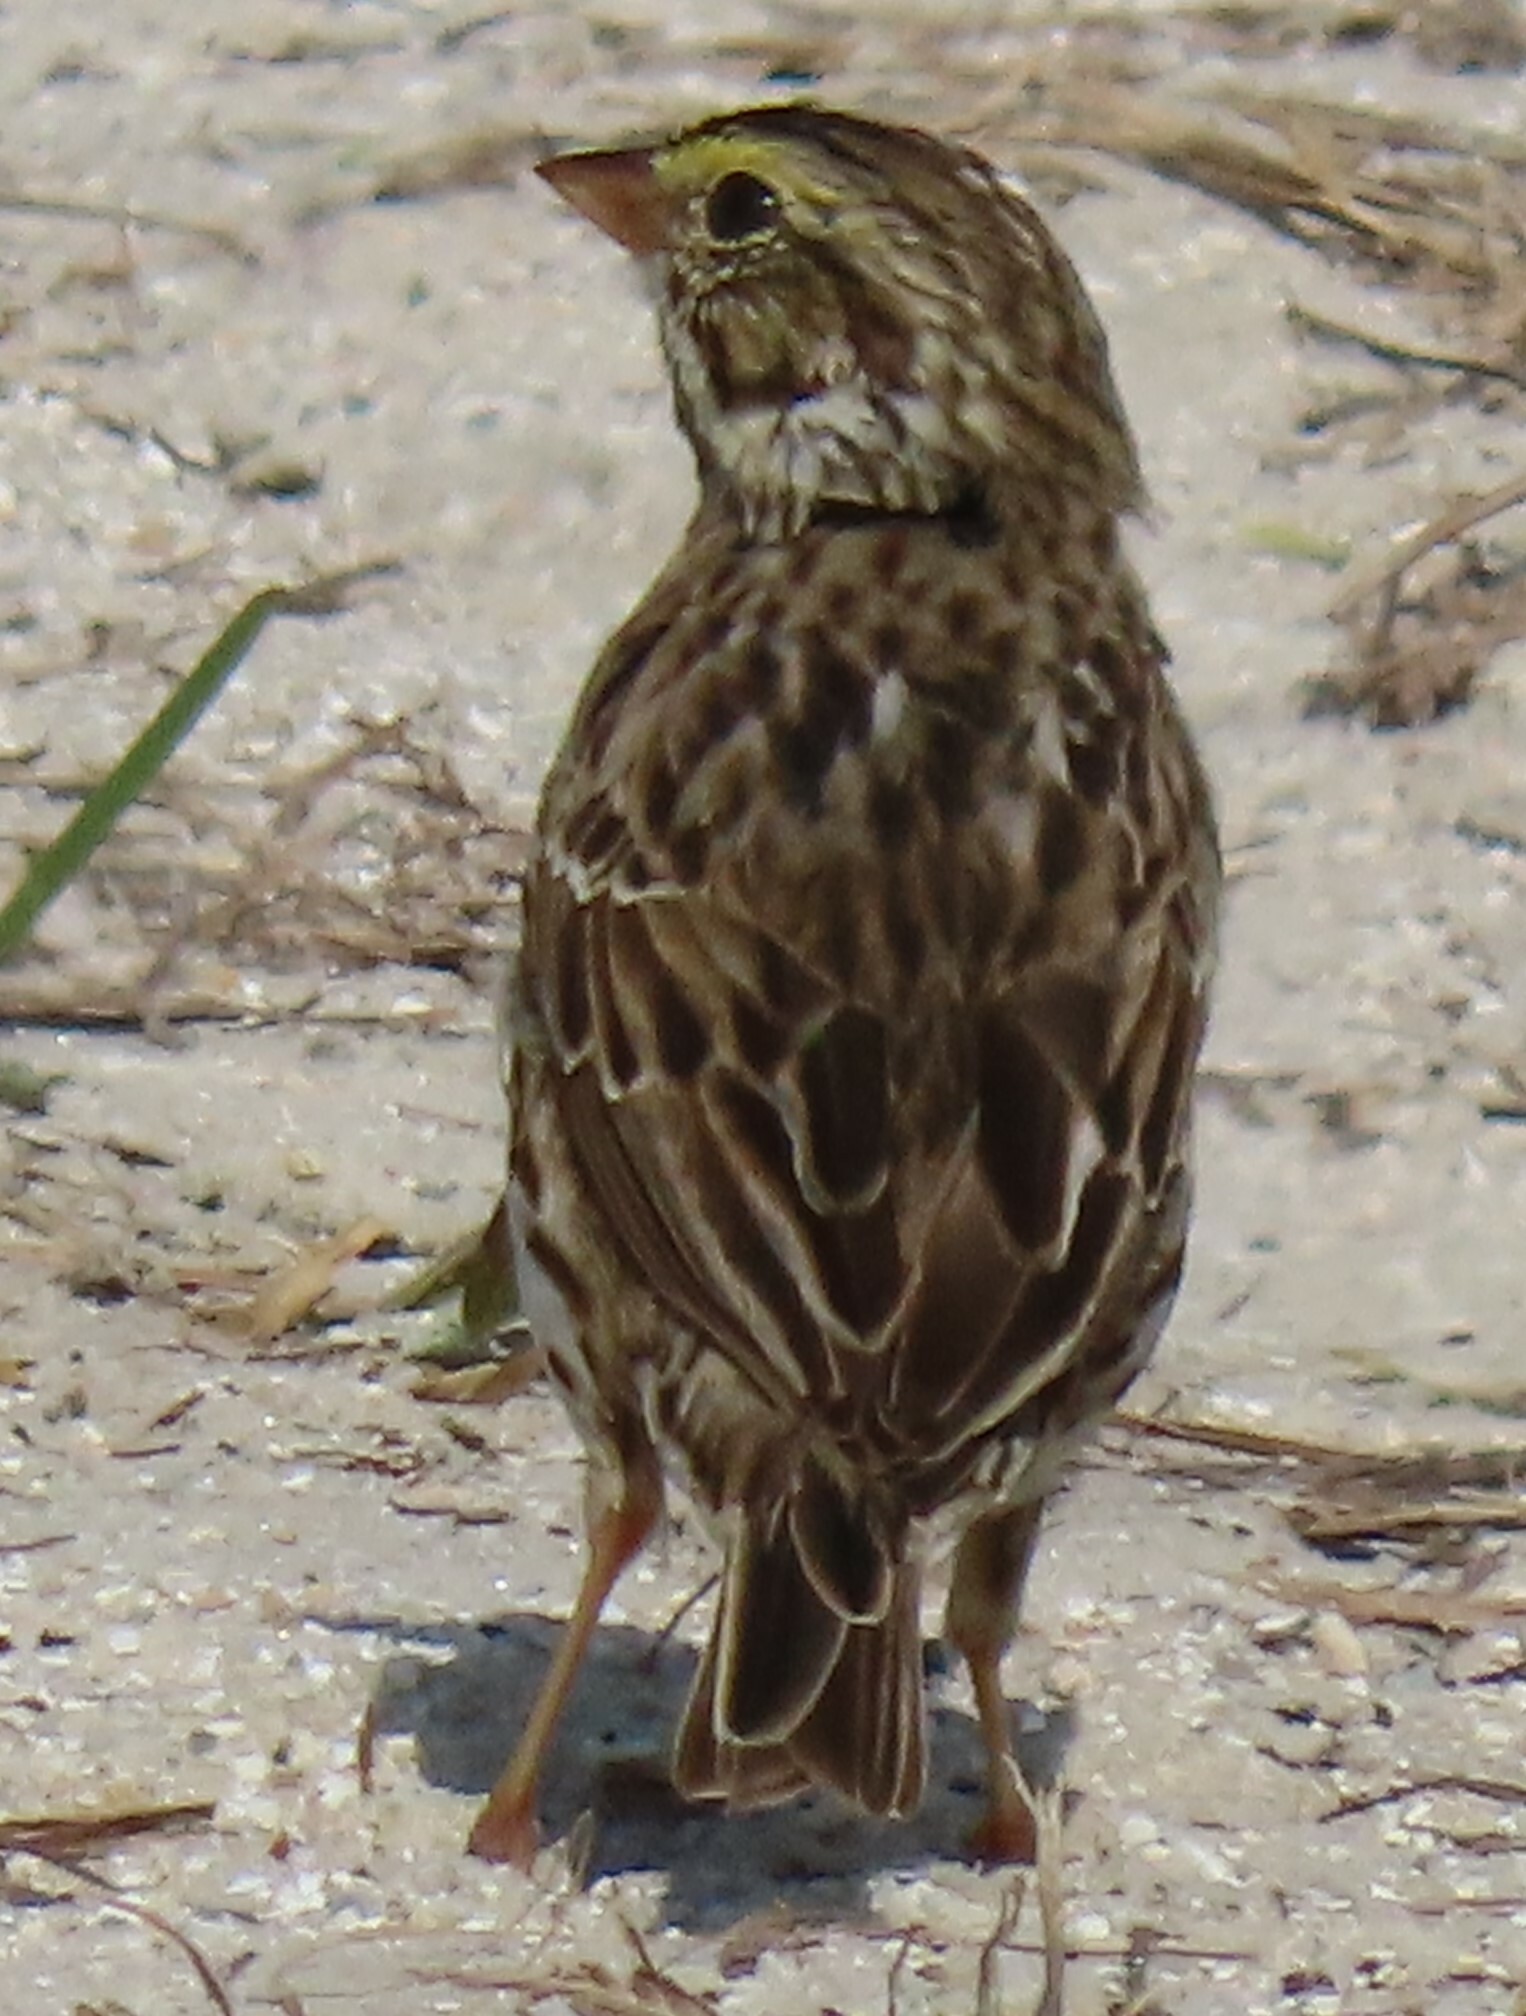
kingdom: Animalia
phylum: Chordata
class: Aves
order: Passeriformes
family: Passerellidae
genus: Passerculus
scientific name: Passerculus sandwichensis
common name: Savannah sparrow
